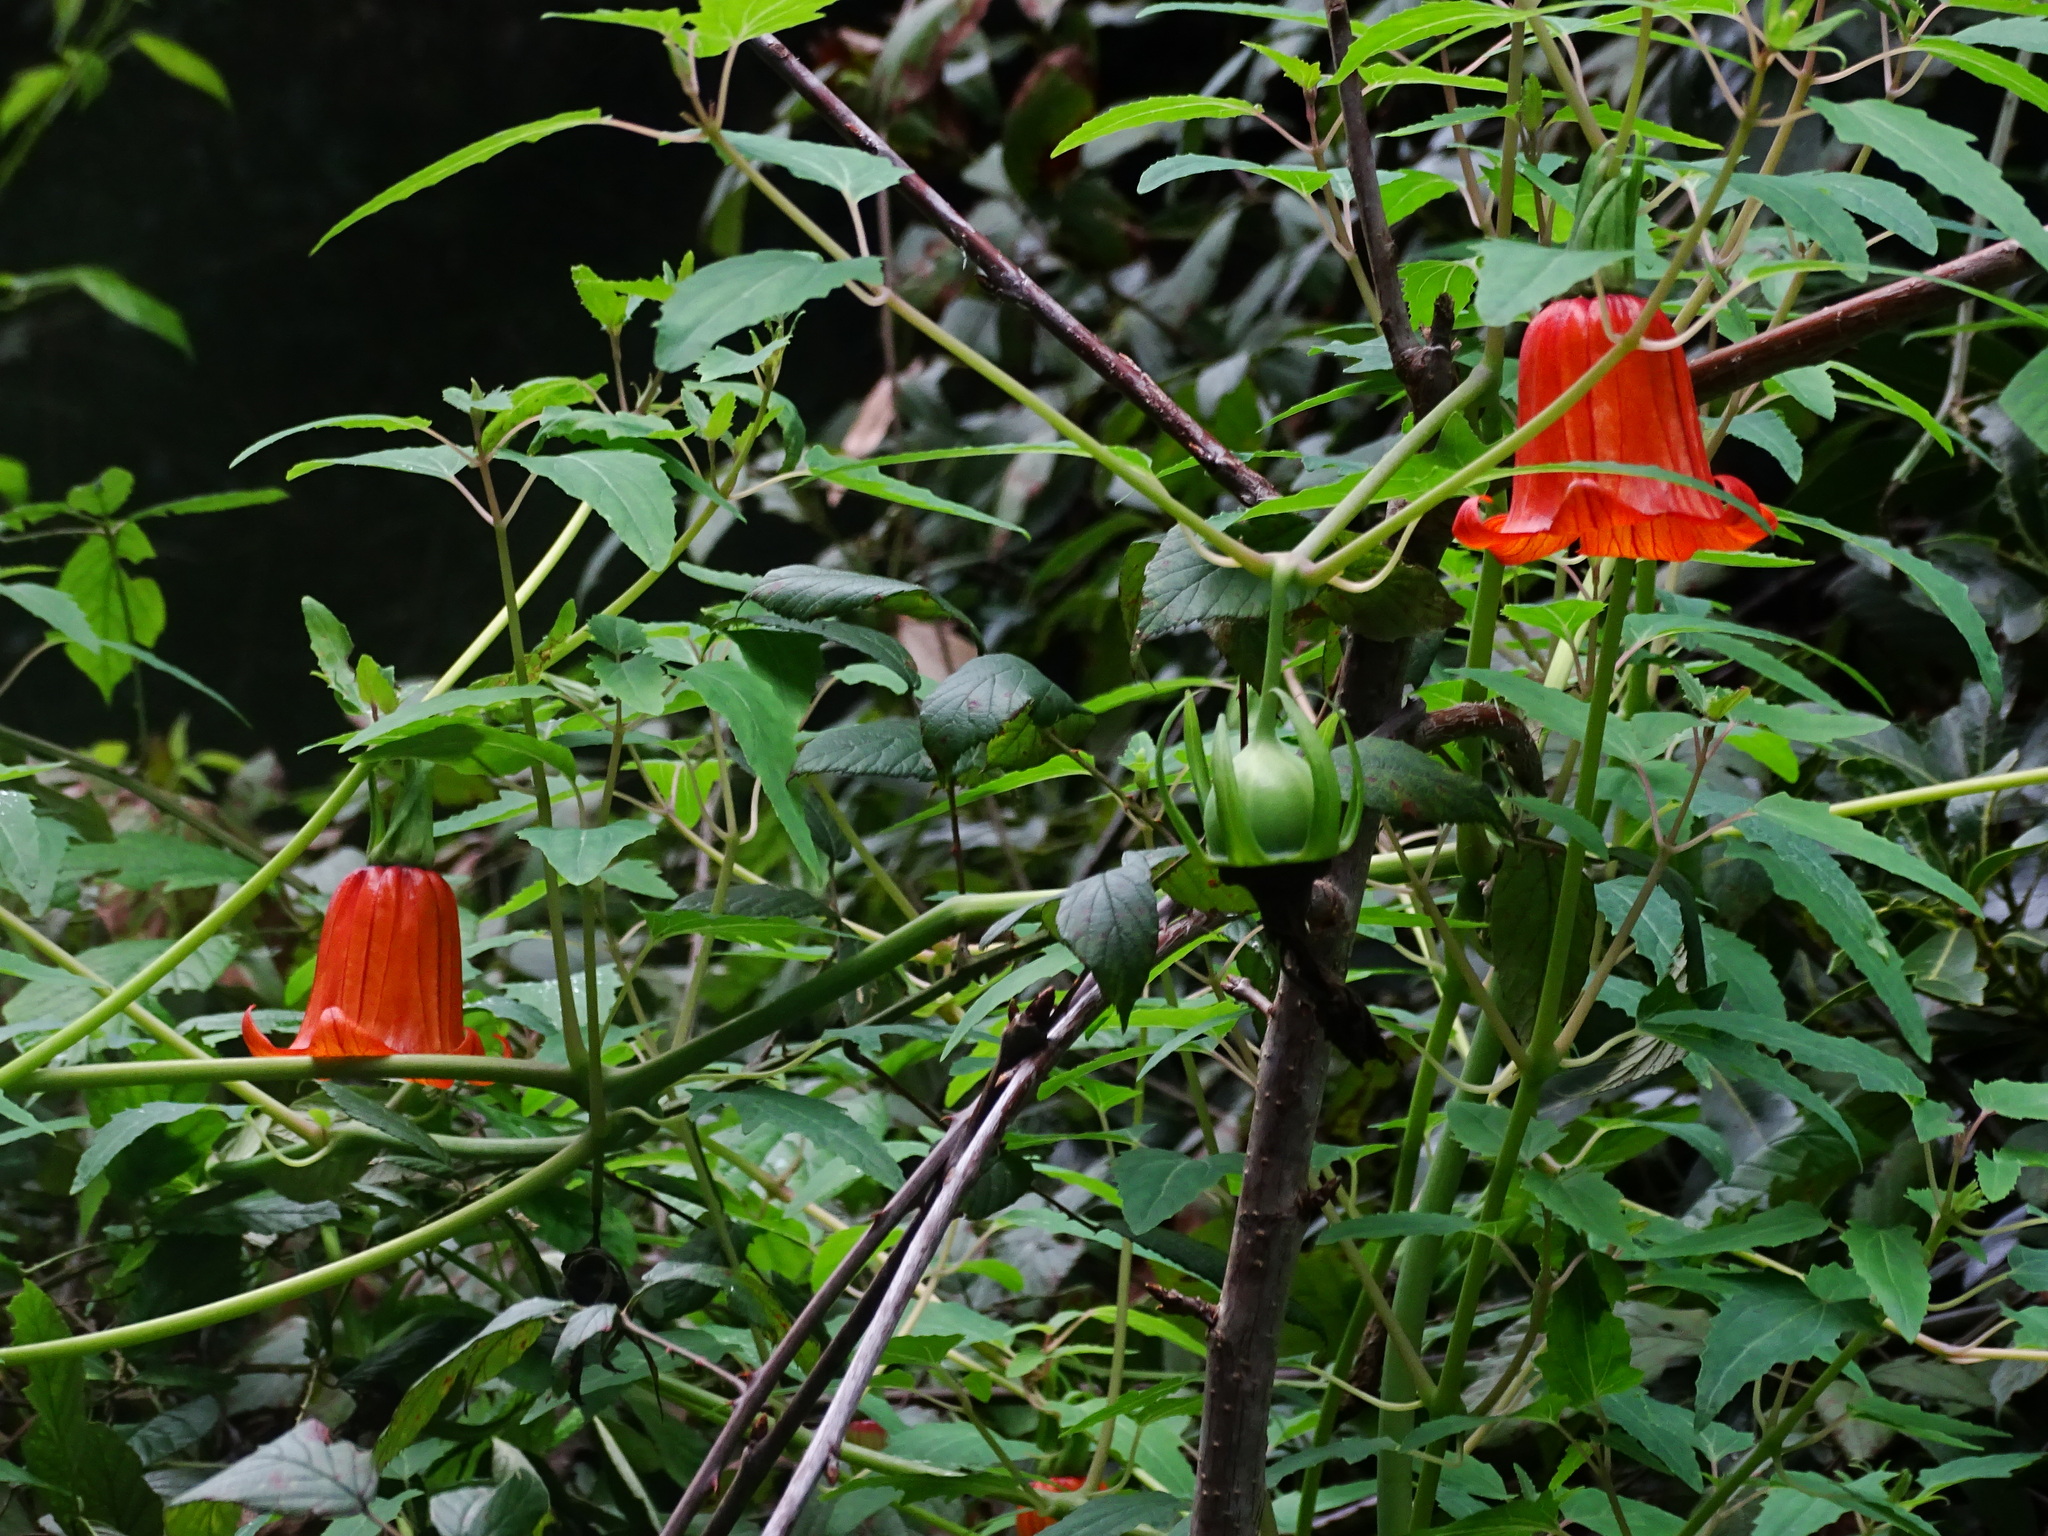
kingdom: Plantae
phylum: Tracheophyta
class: Magnoliopsida
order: Asterales
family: Campanulaceae
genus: Canarina
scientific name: Canarina canariensis
